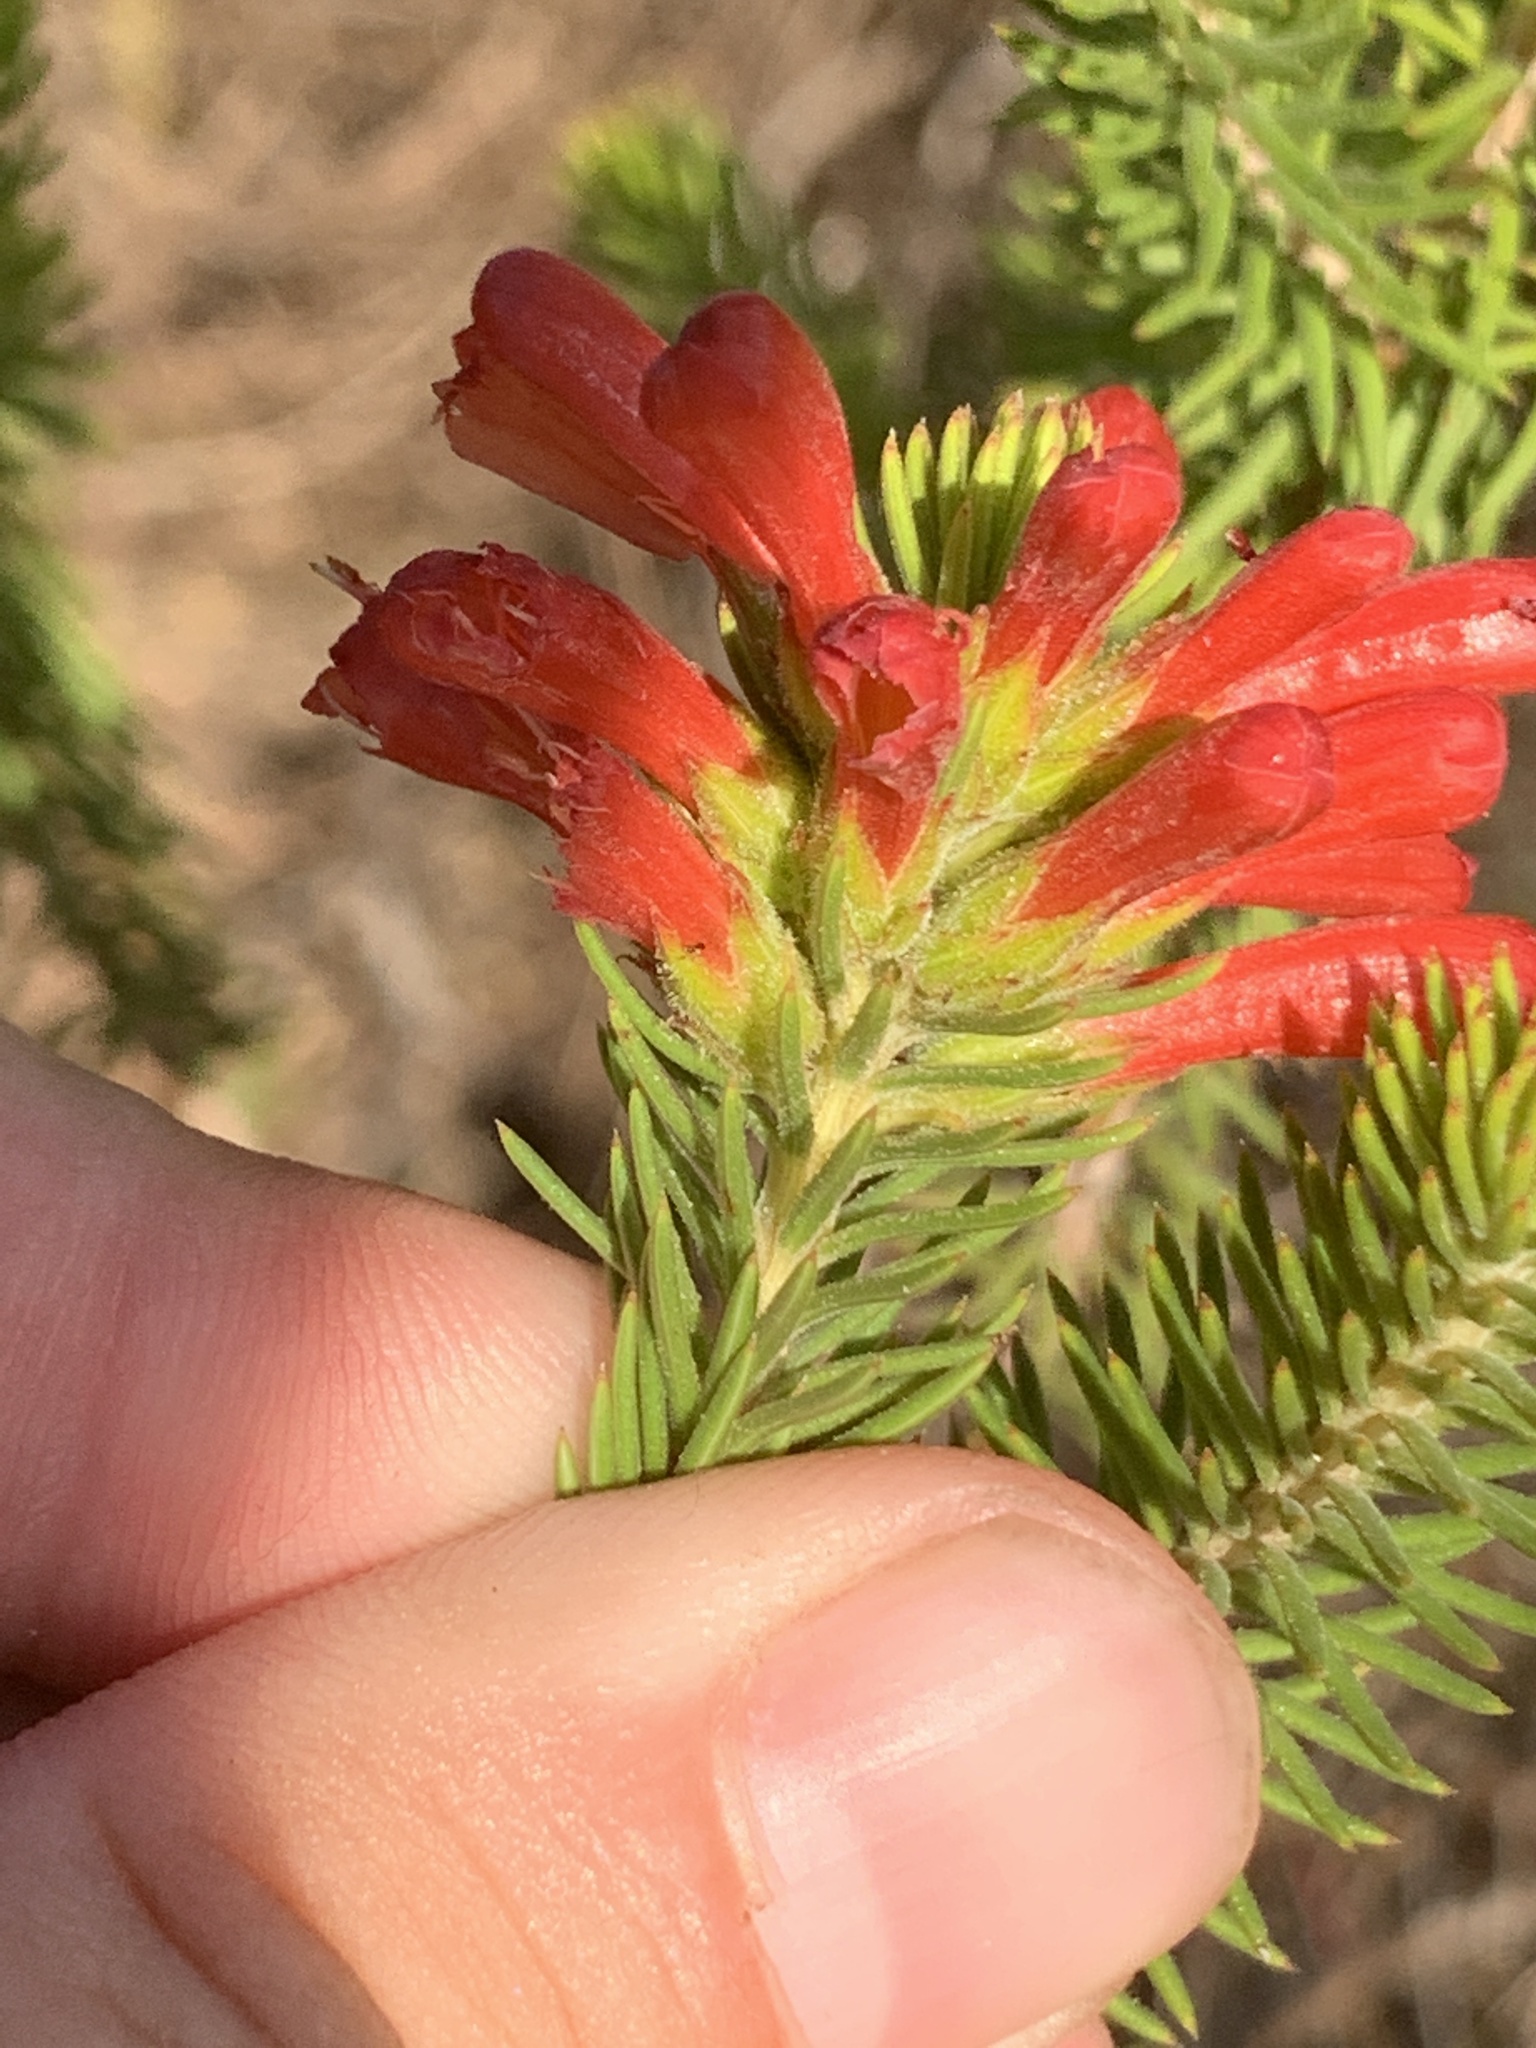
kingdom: Plantae
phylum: Tracheophyta
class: Magnoliopsida
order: Ericales
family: Ericaceae
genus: Erica
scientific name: Erica abietina
